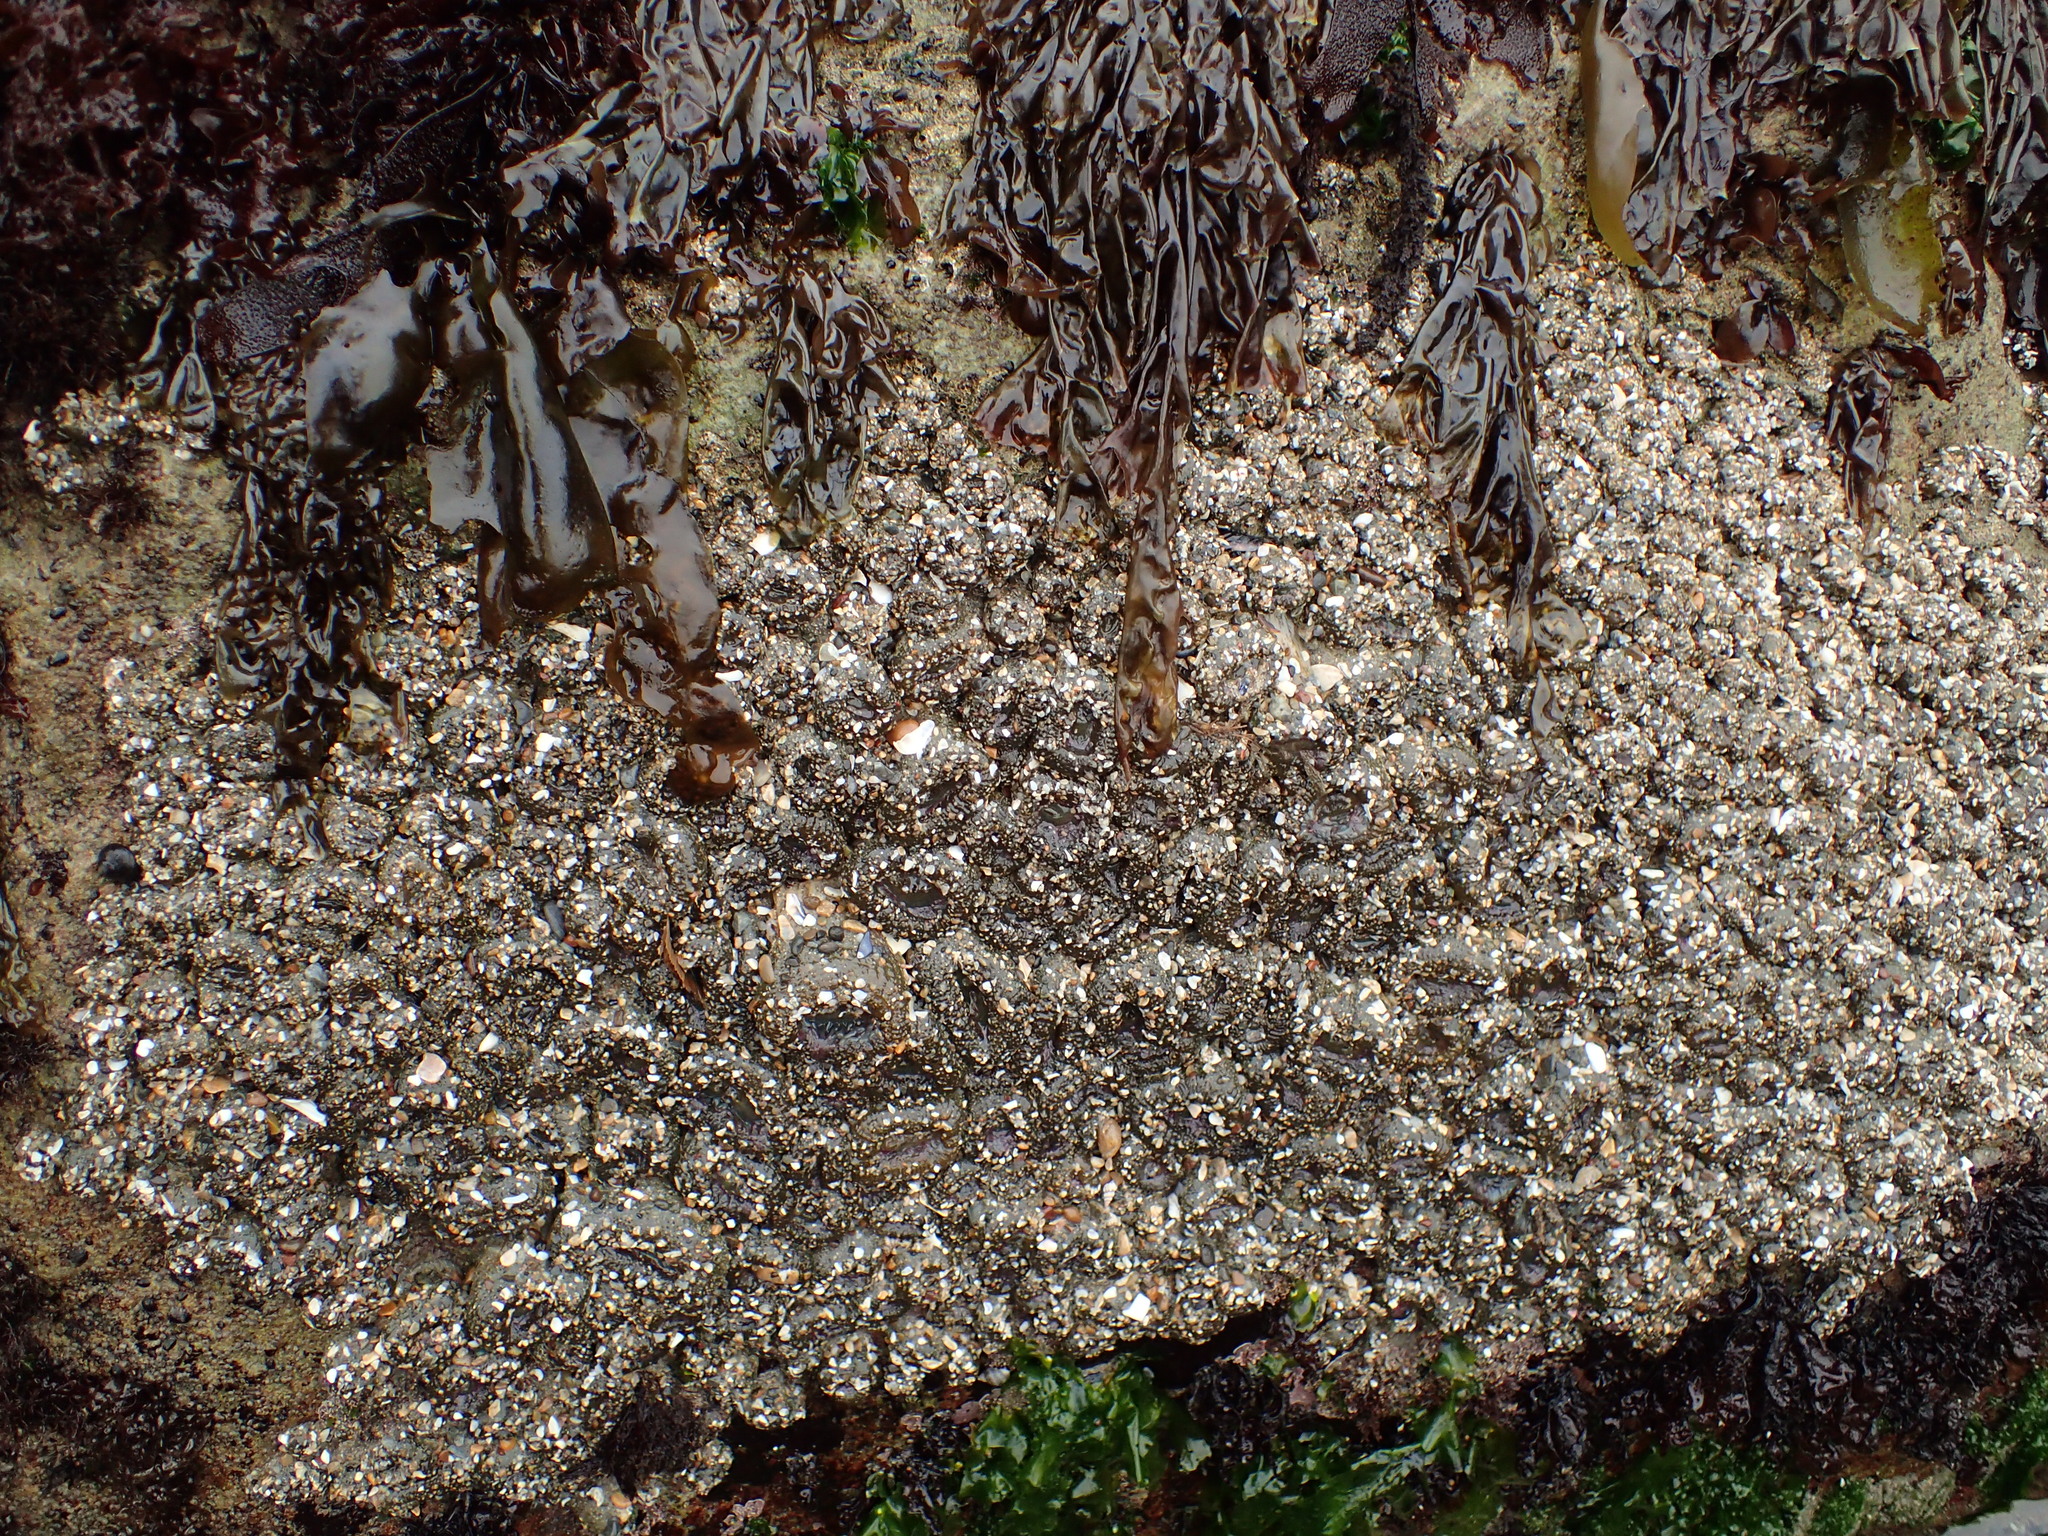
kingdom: Animalia
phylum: Cnidaria
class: Anthozoa
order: Actiniaria
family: Actiniidae
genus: Anthopleura
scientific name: Anthopleura elegantissima
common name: Clonal anemone
